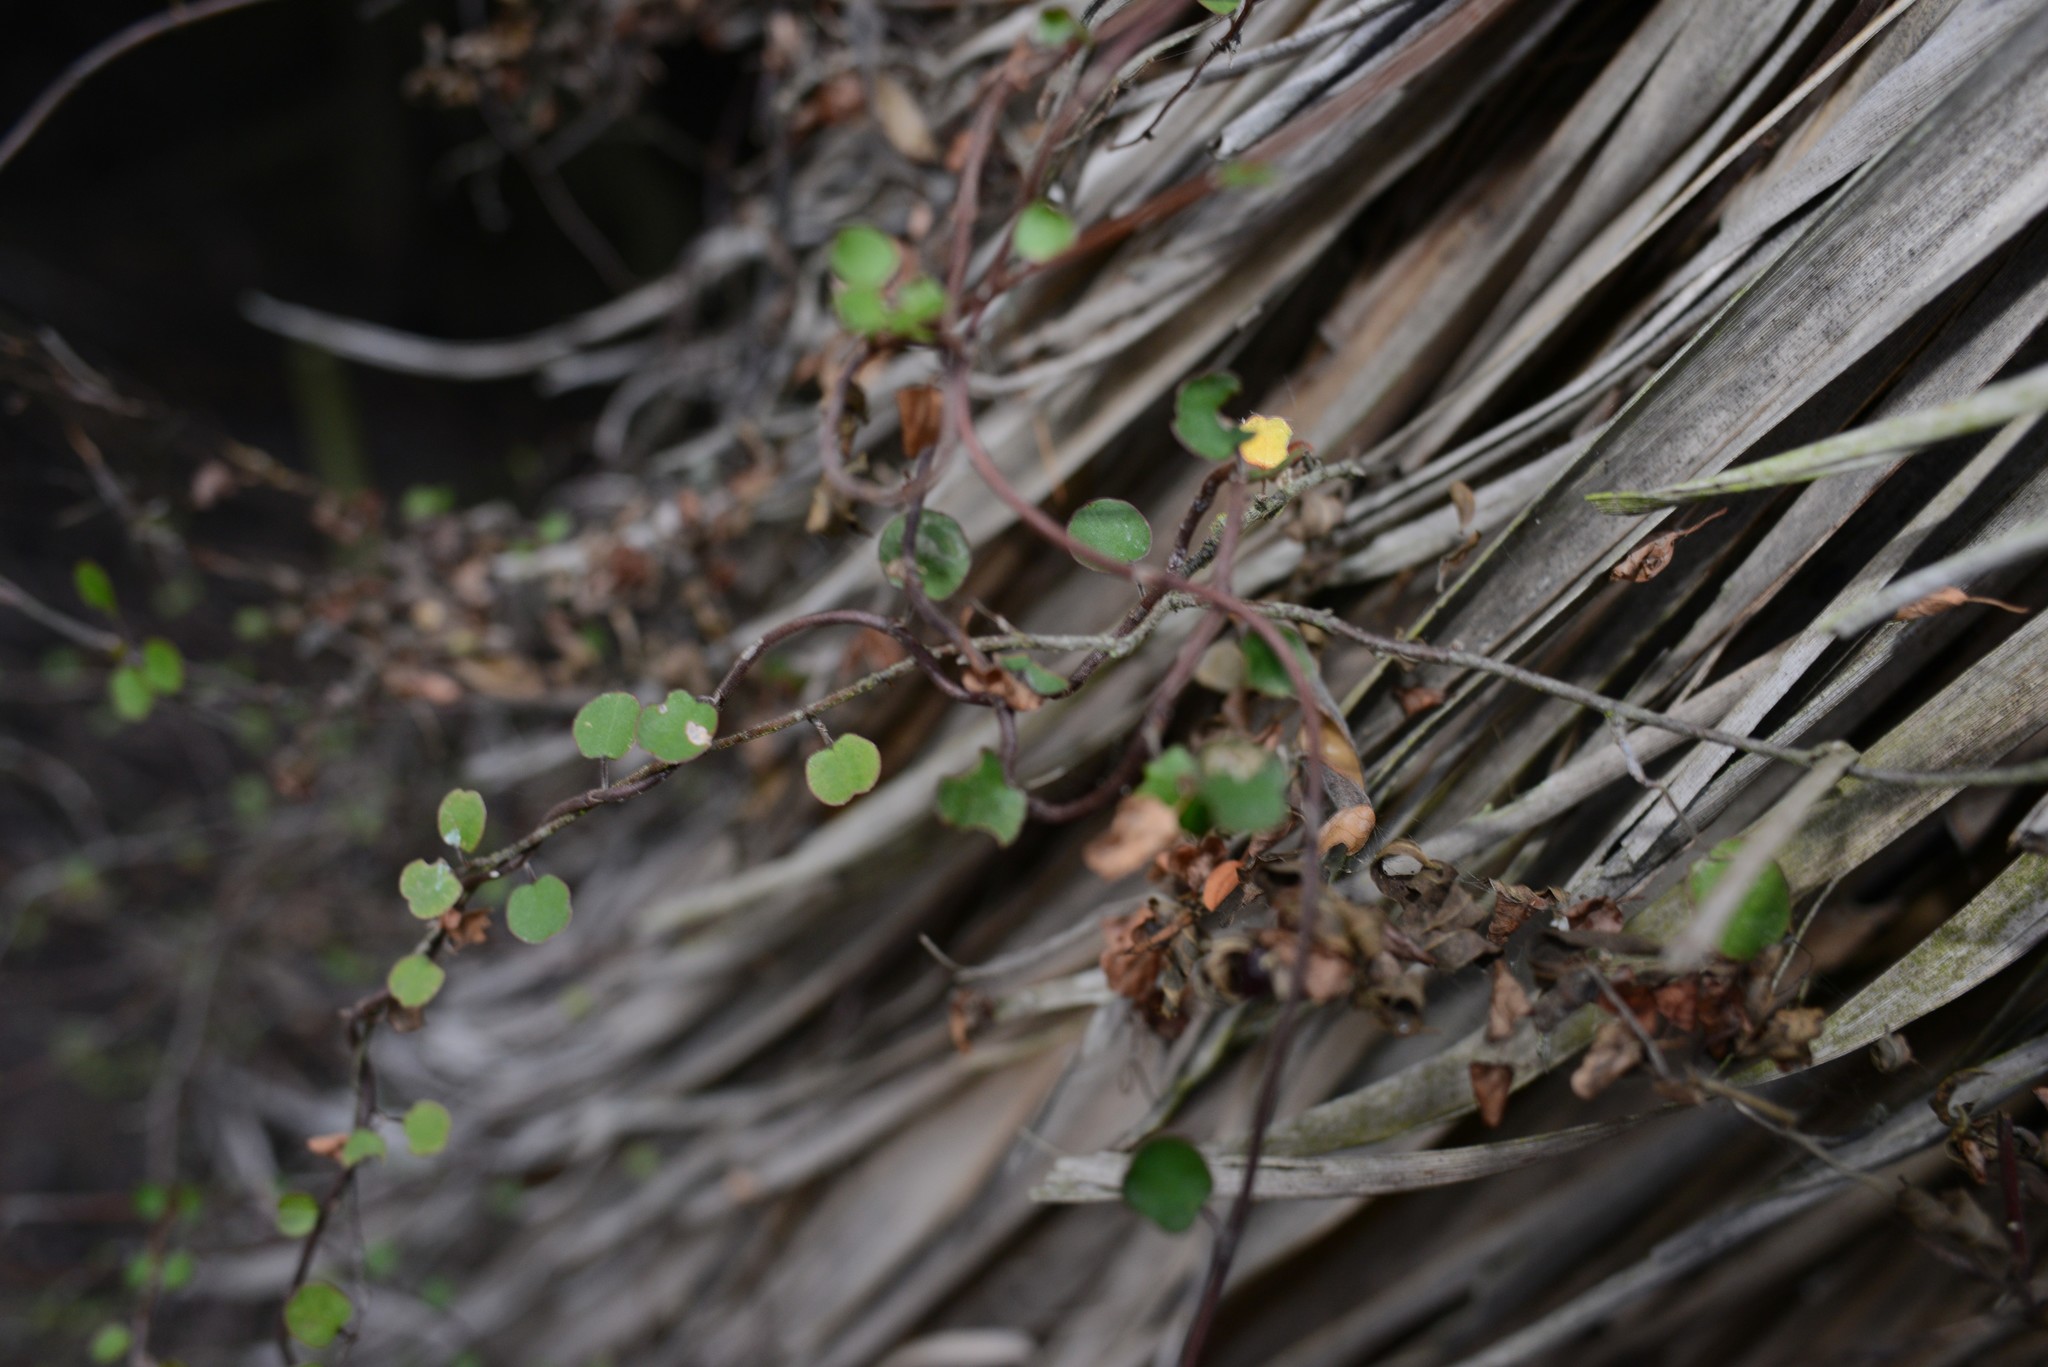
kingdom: Plantae
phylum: Tracheophyta
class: Magnoliopsida
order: Caryophyllales
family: Polygonaceae
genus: Muehlenbeckia
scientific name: Muehlenbeckia complexa
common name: Wireplant
